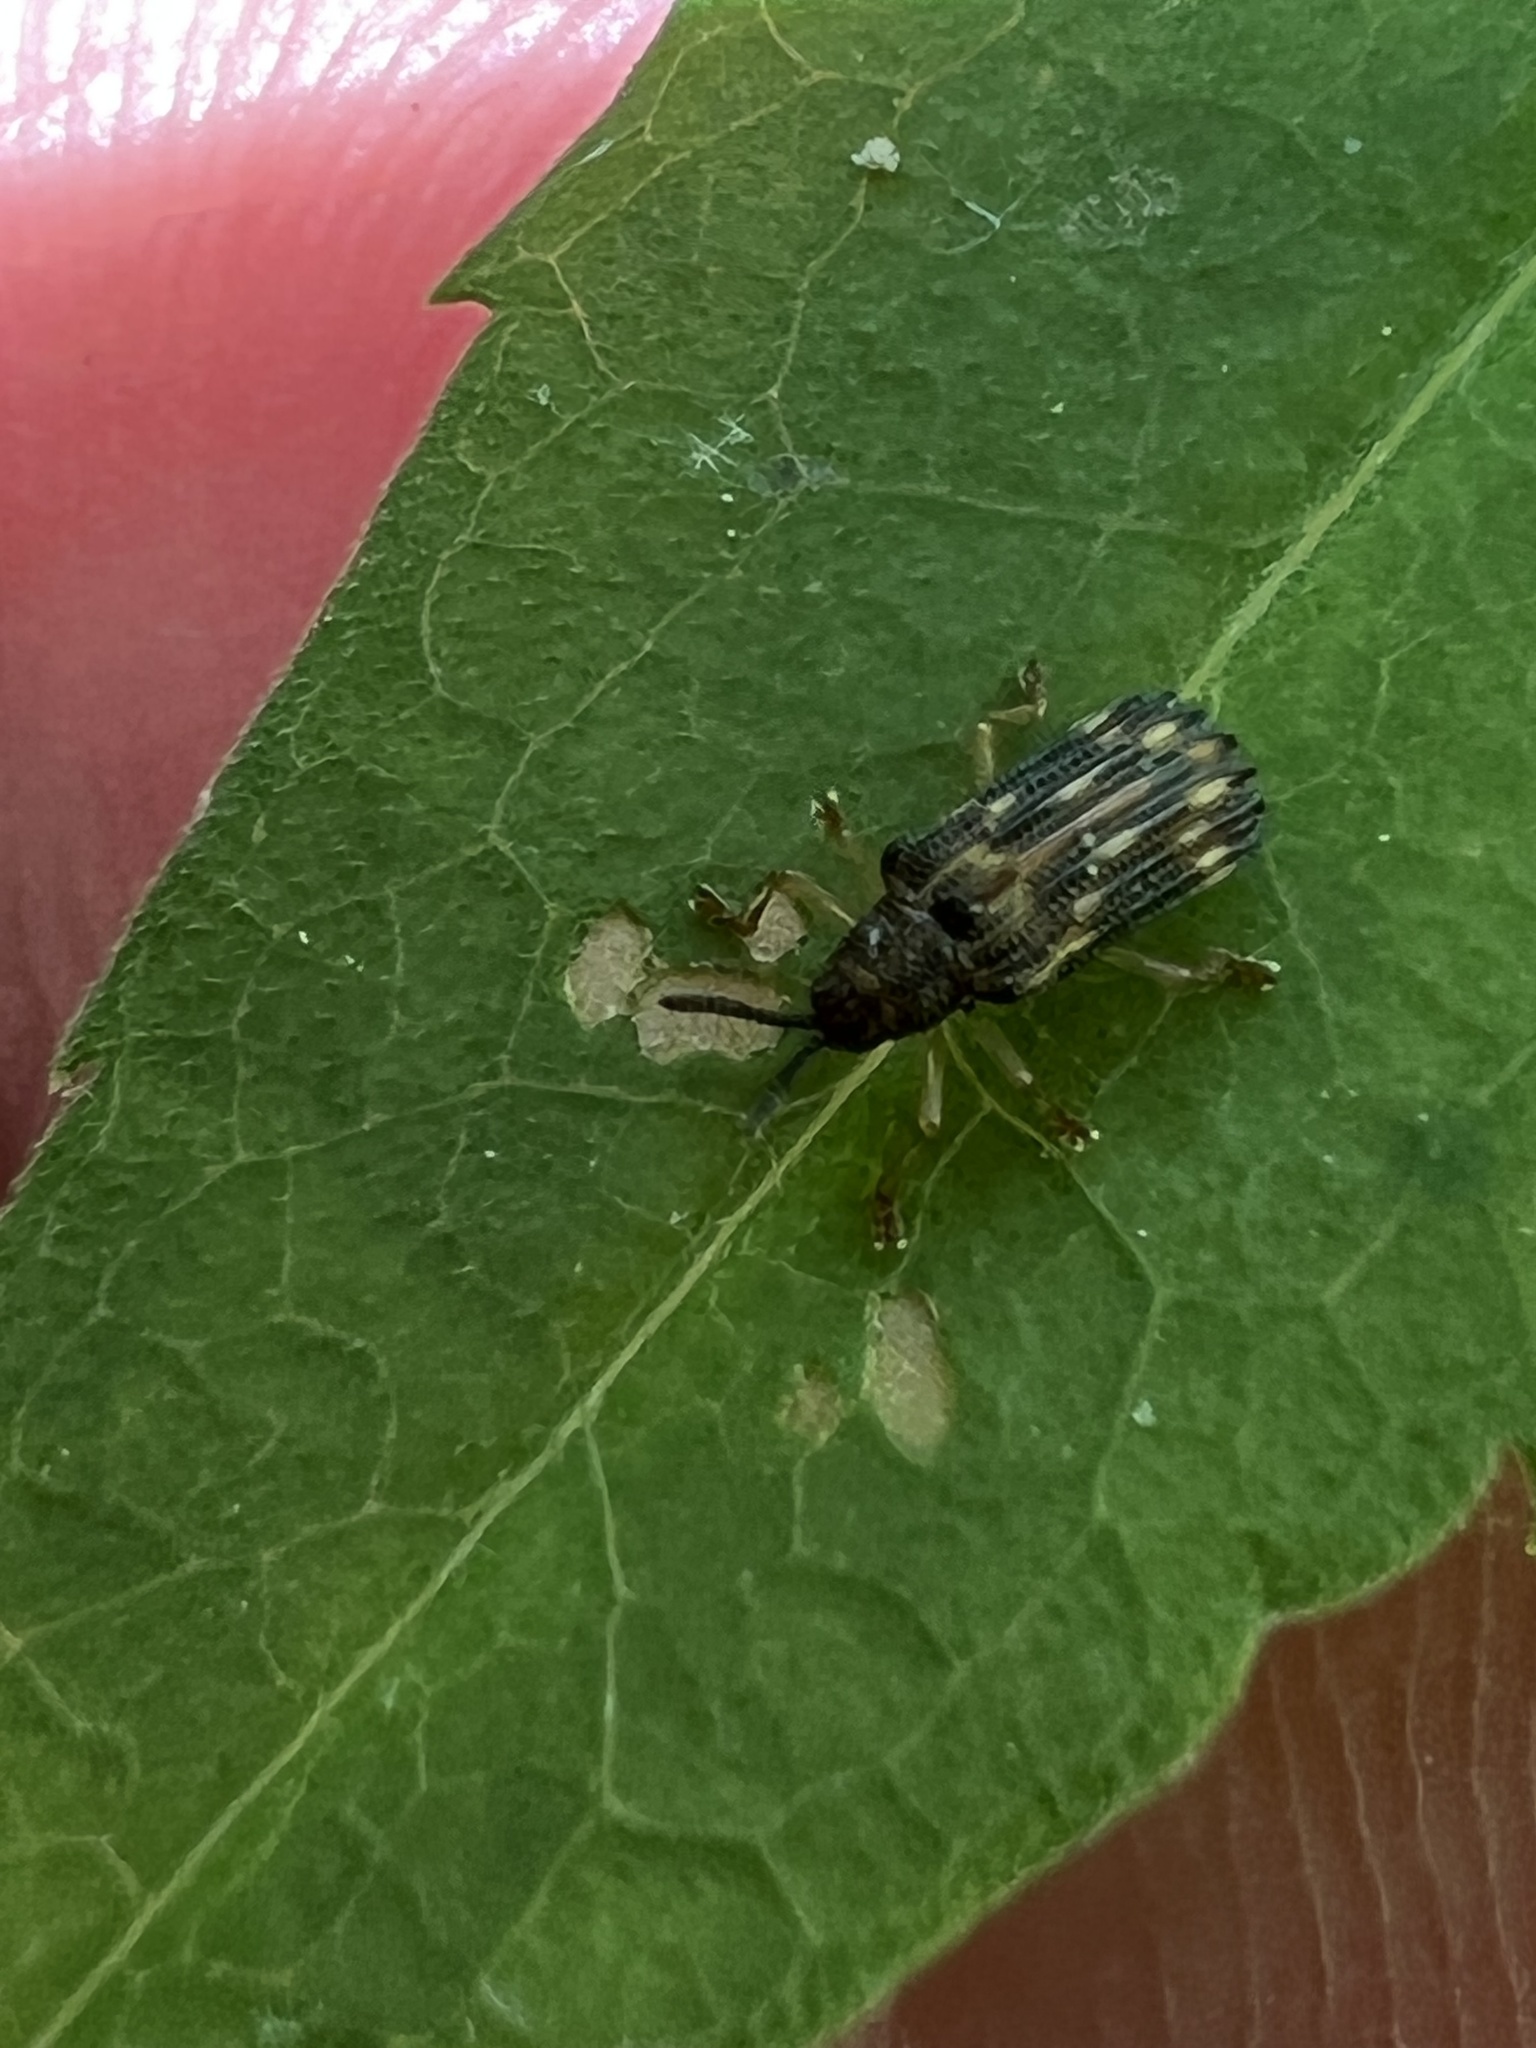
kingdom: Animalia
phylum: Arthropoda
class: Insecta
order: Coleoptera
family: Chrysomelidae
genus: Sumitrosis
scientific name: Sumitrosis inaequalis
